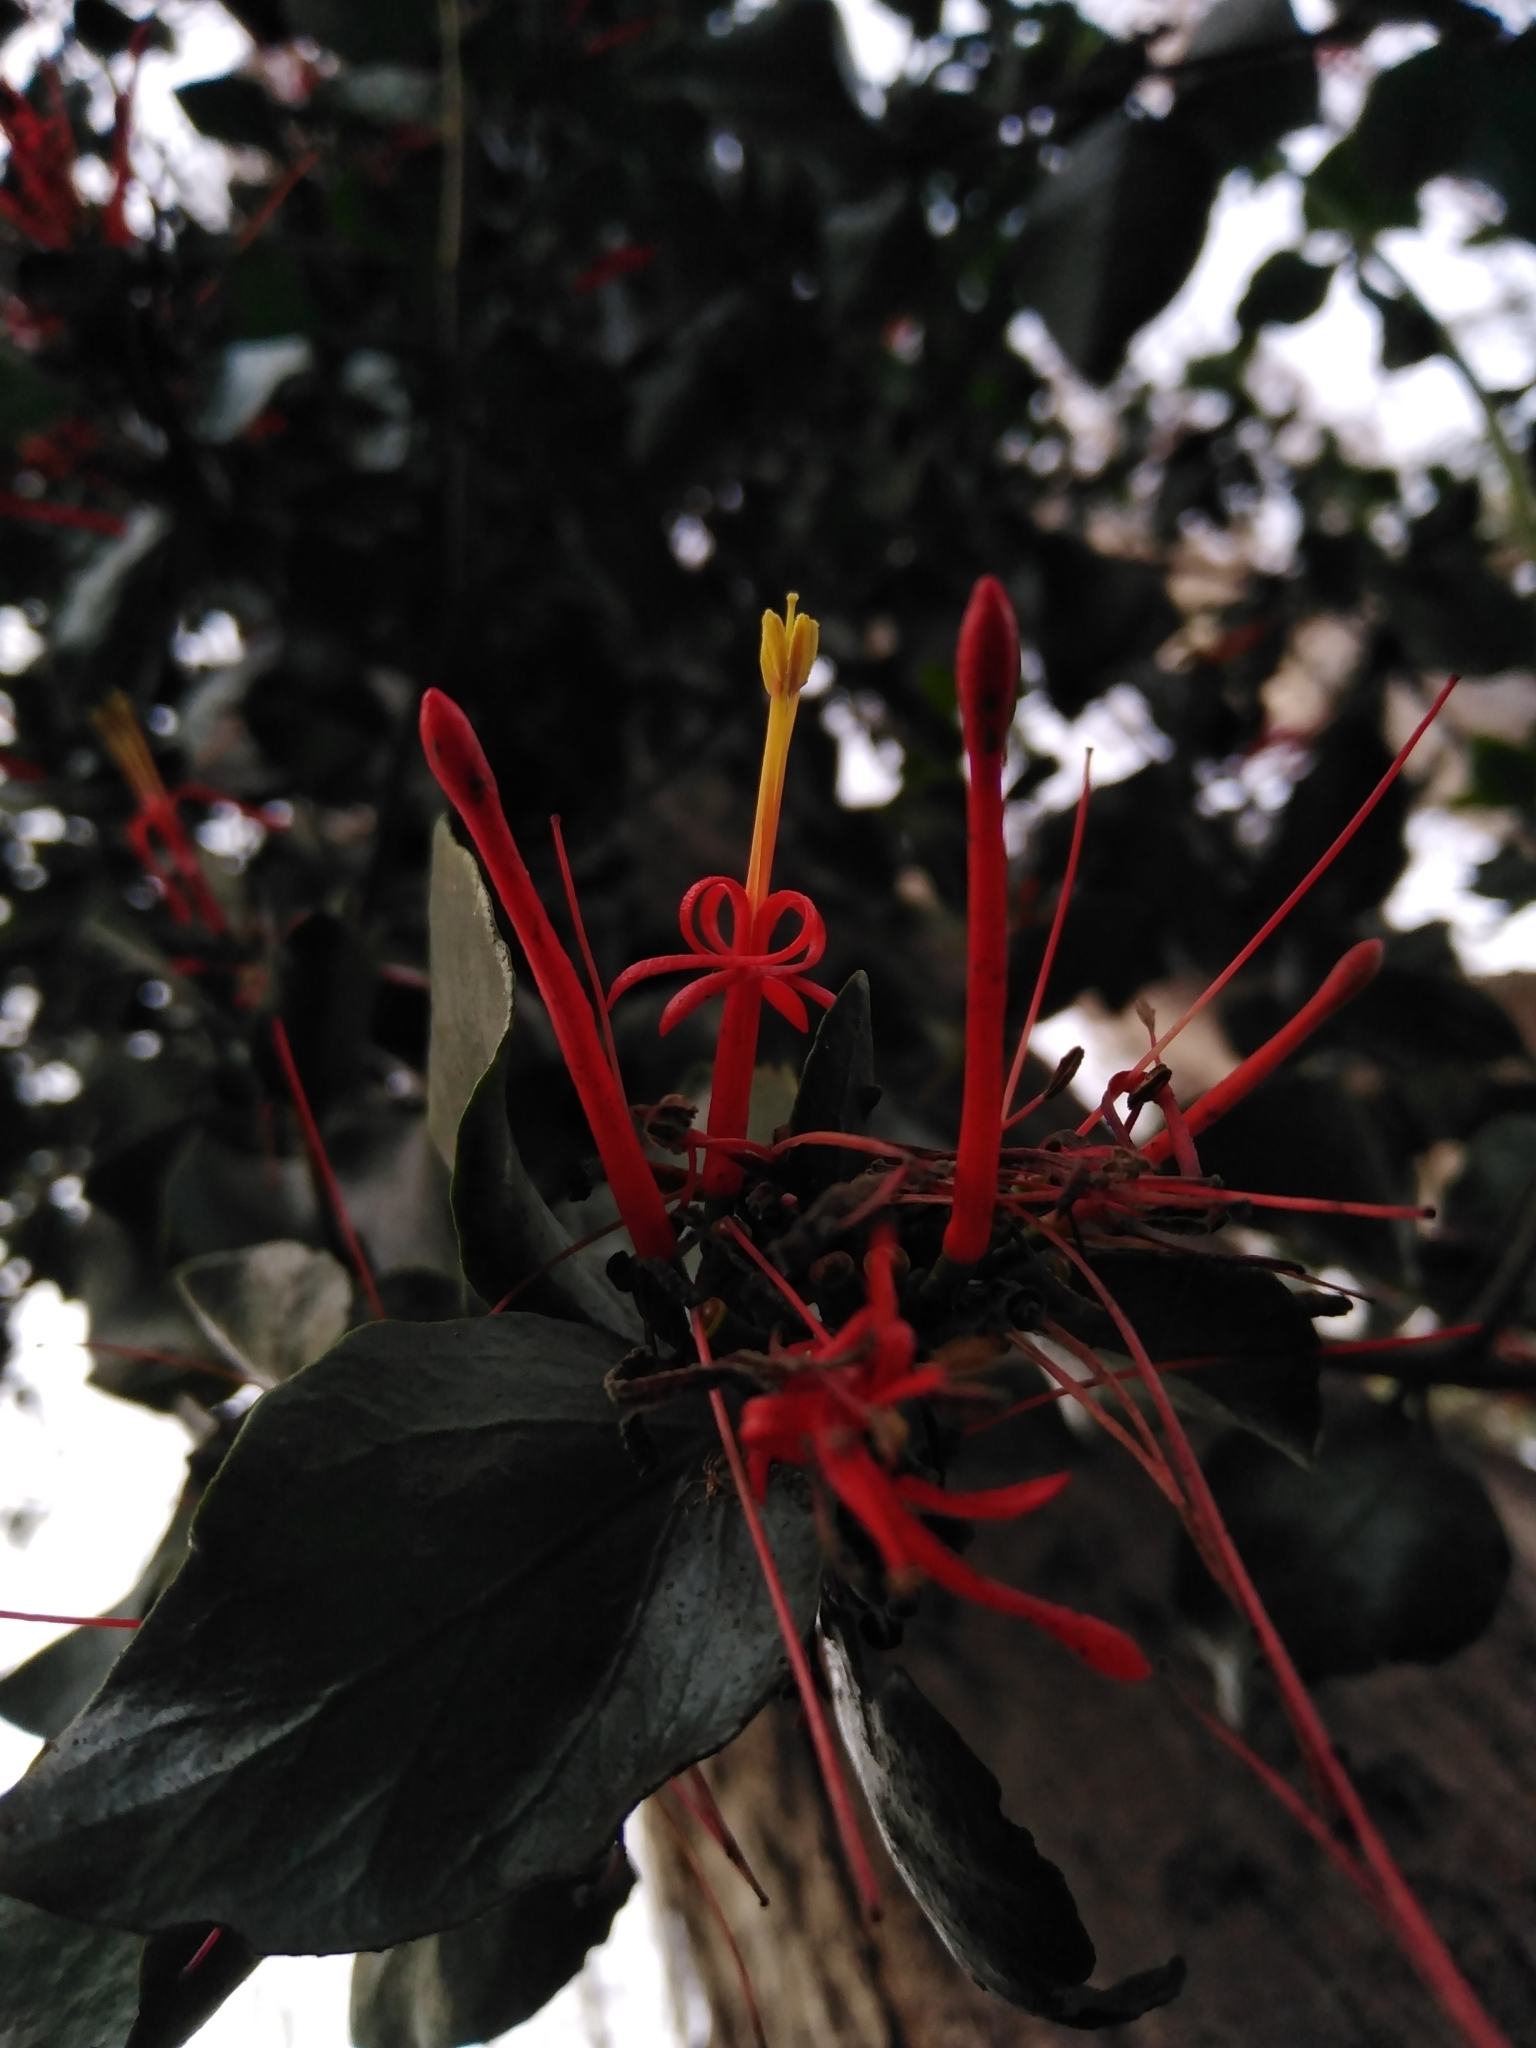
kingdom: Plantae
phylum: Tracheophyta
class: Magnoliopsida
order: Santalales
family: Loranthaceae
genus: Tristerix
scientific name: Tristerix corymbosus
